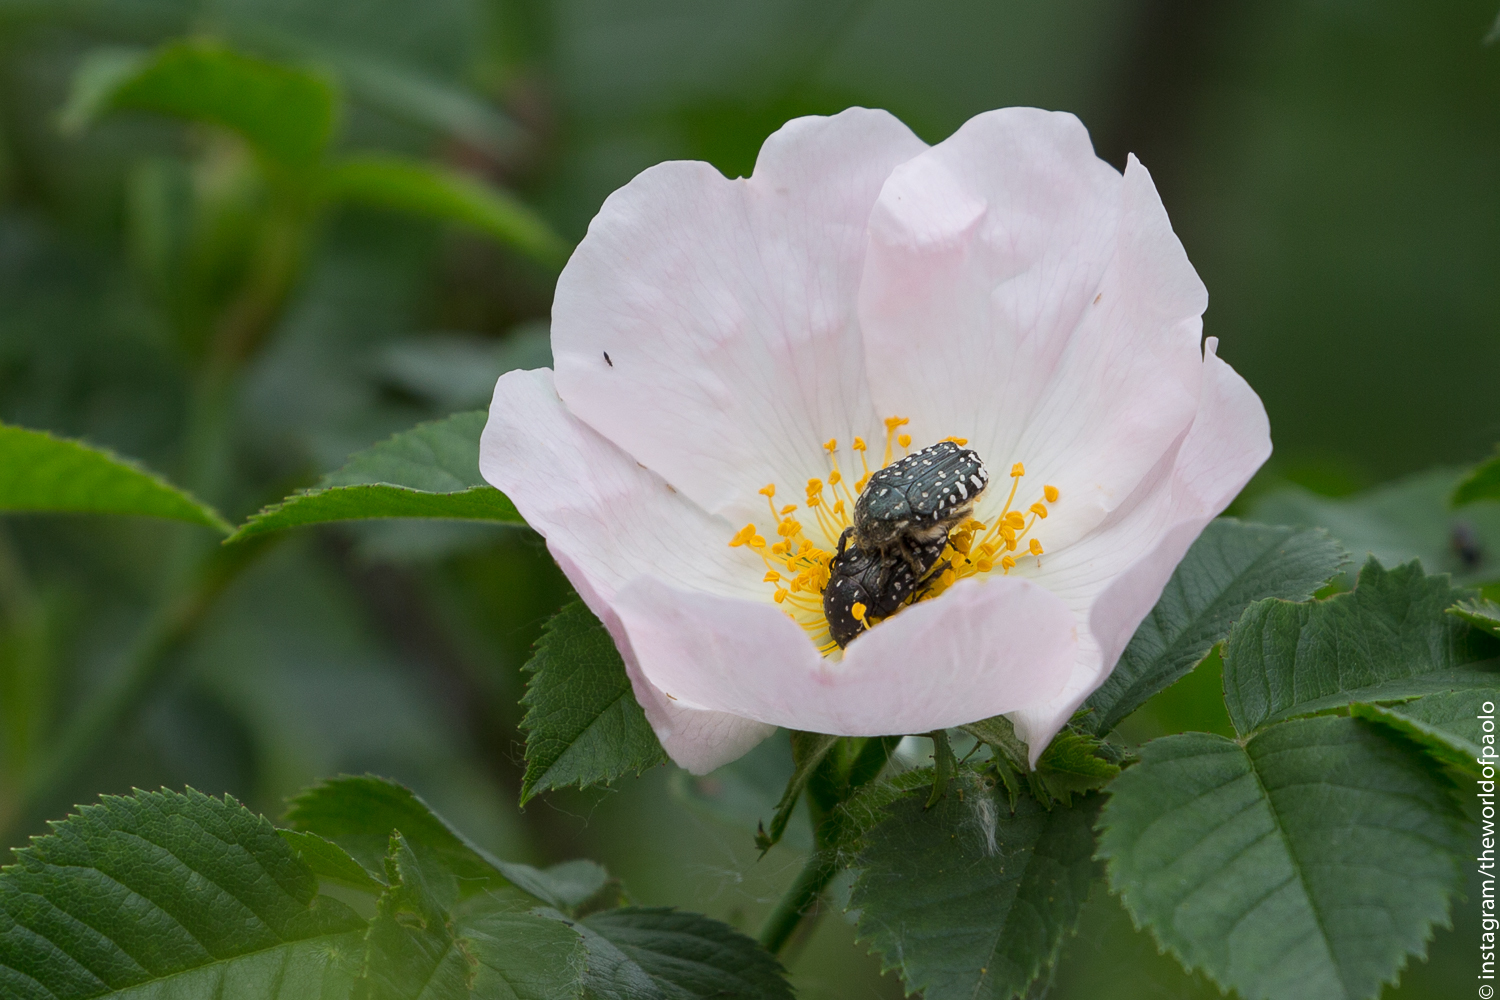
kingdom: Animalia
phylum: Arthropoda
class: Insecta
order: Coleoptera
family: Scarabaeidae
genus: Oxythyrea
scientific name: Oxythyrea funesta
